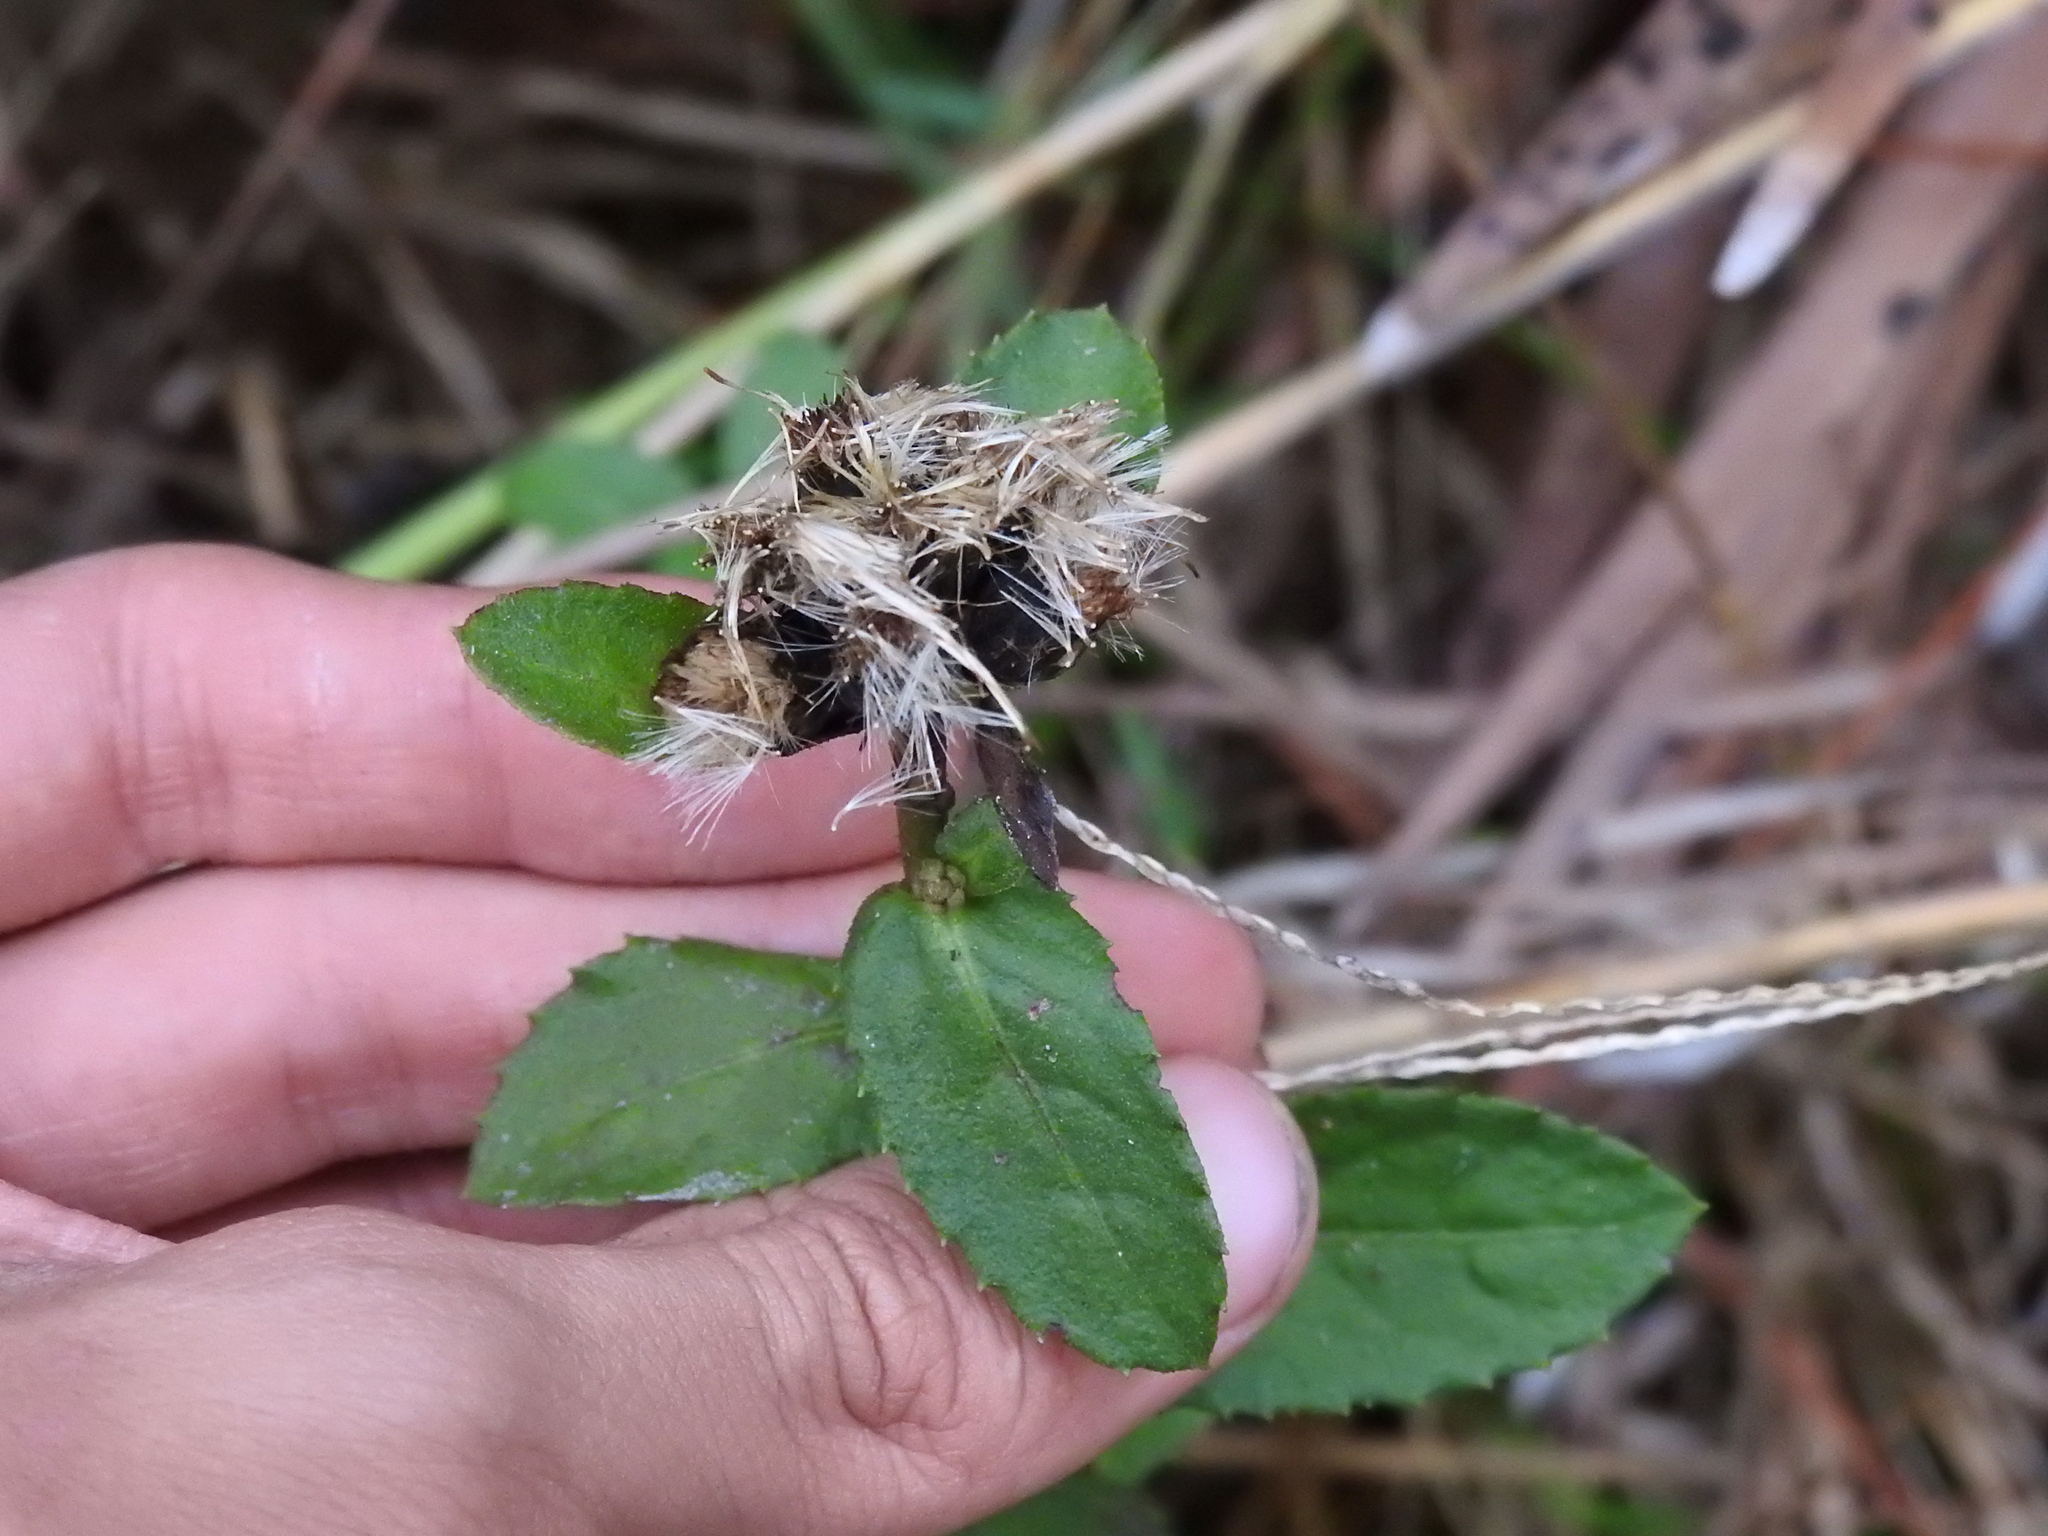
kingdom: Plantae
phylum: Tracheophyta
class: Magnoliopsida
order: Asterales
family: Asteraceae
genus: Pluchea
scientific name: Pluchea foetida
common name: Stinking camphorweed
